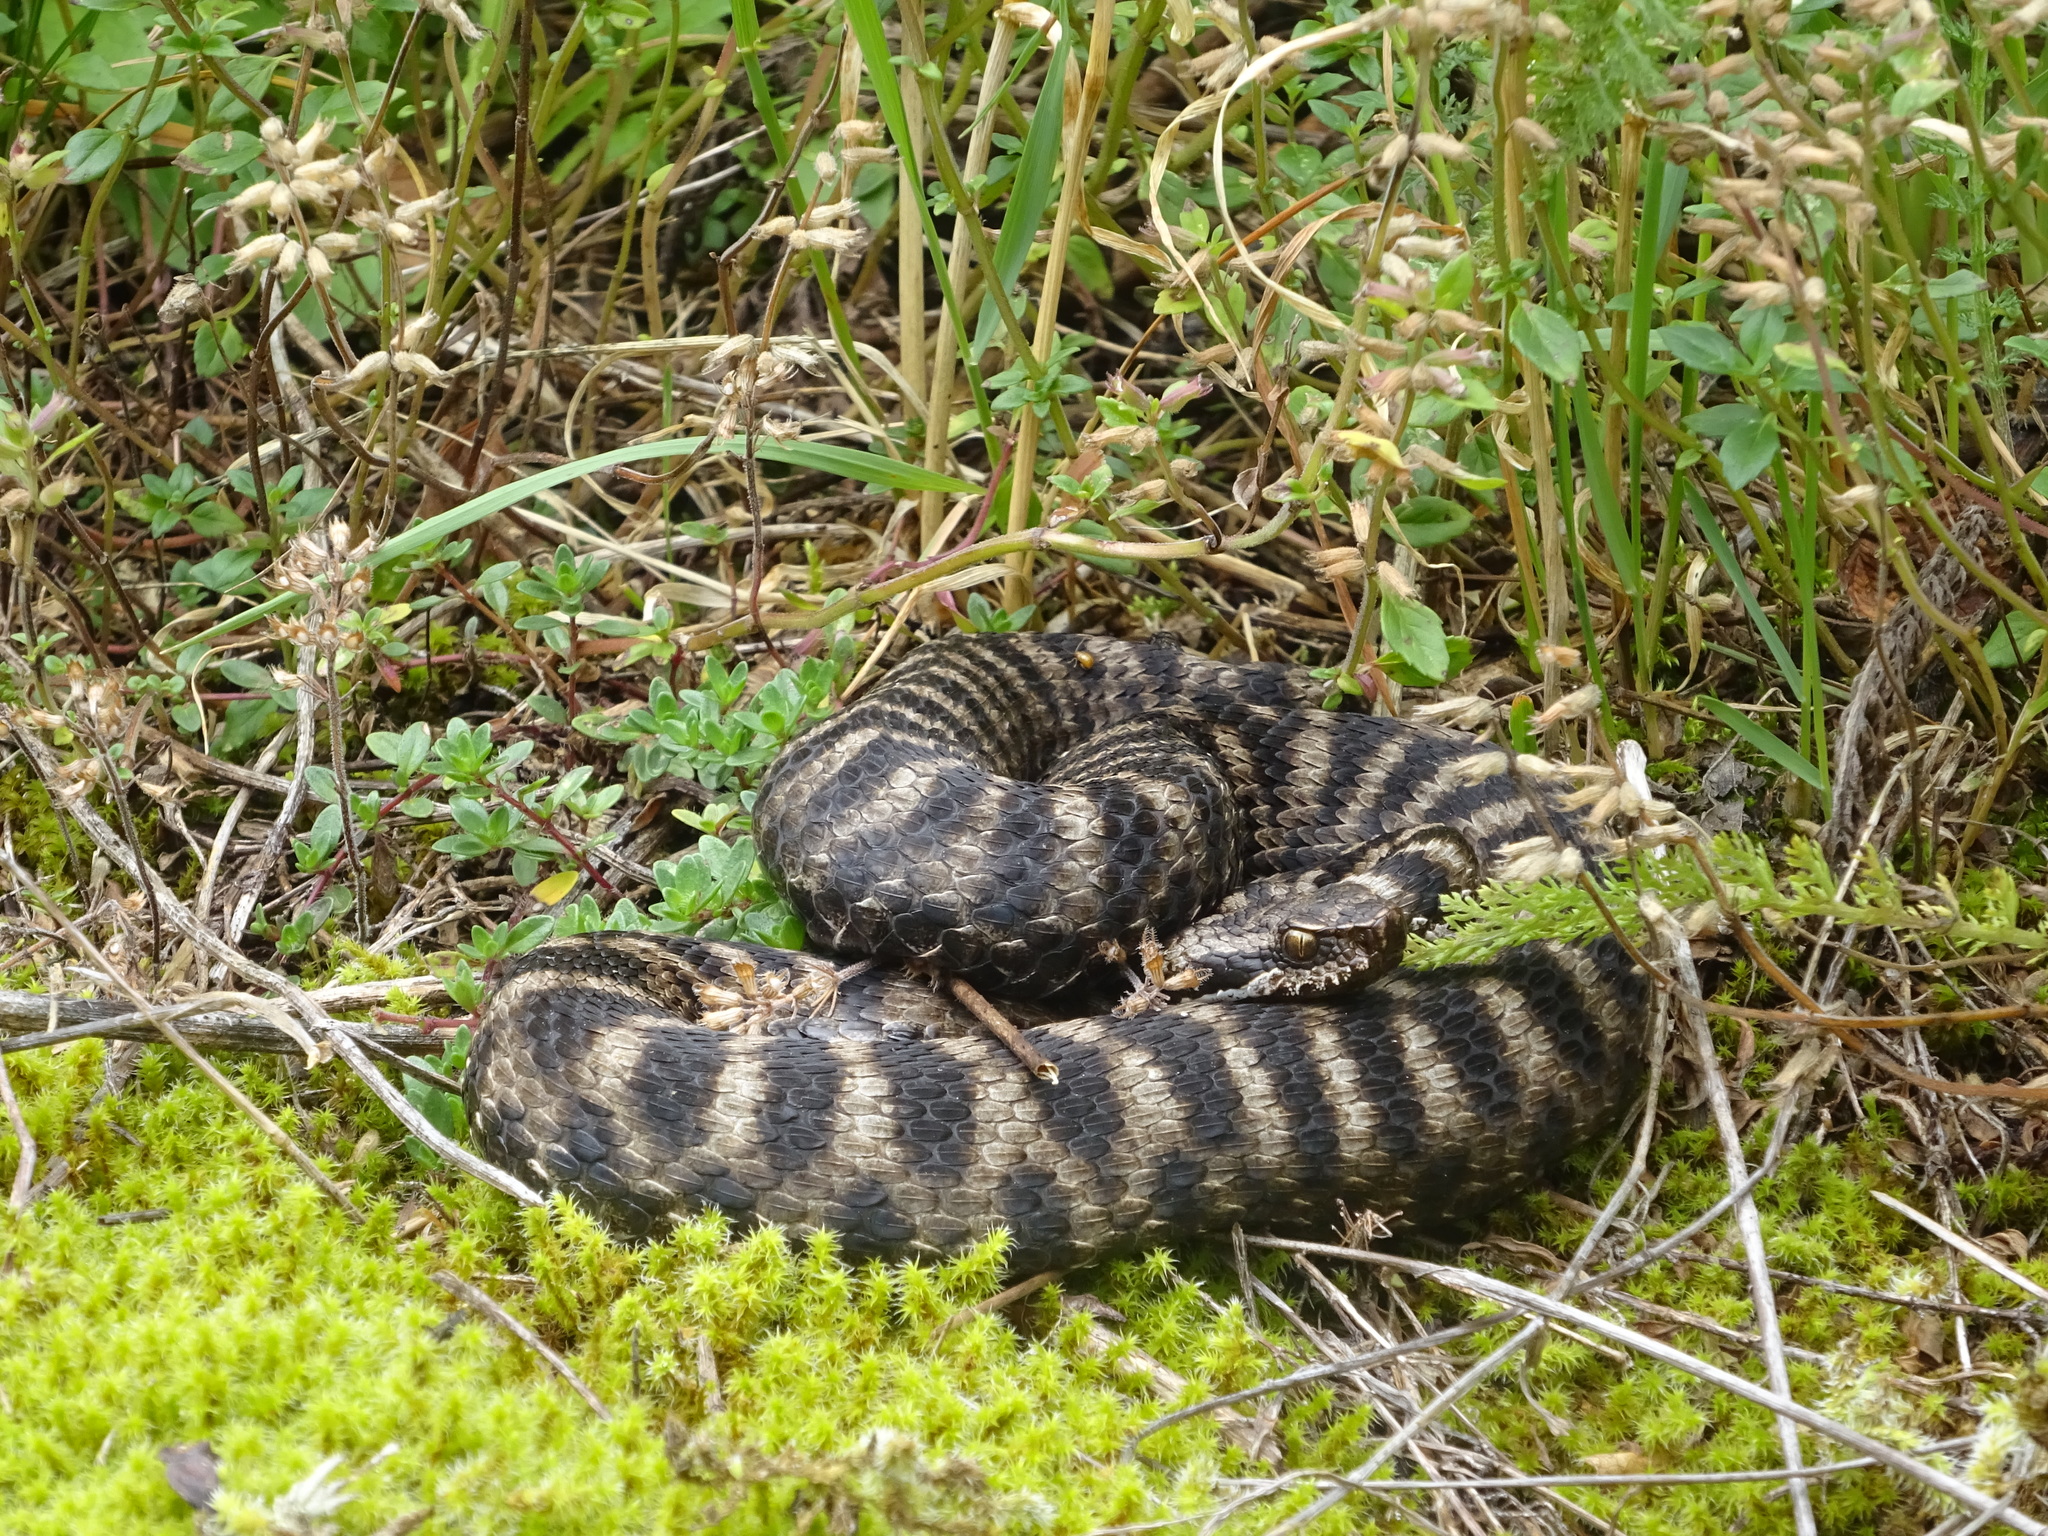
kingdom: Animalia
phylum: Chordata
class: Squamata
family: Viperidae
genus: Vipera
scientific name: Vipera aspis
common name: Asp viper
